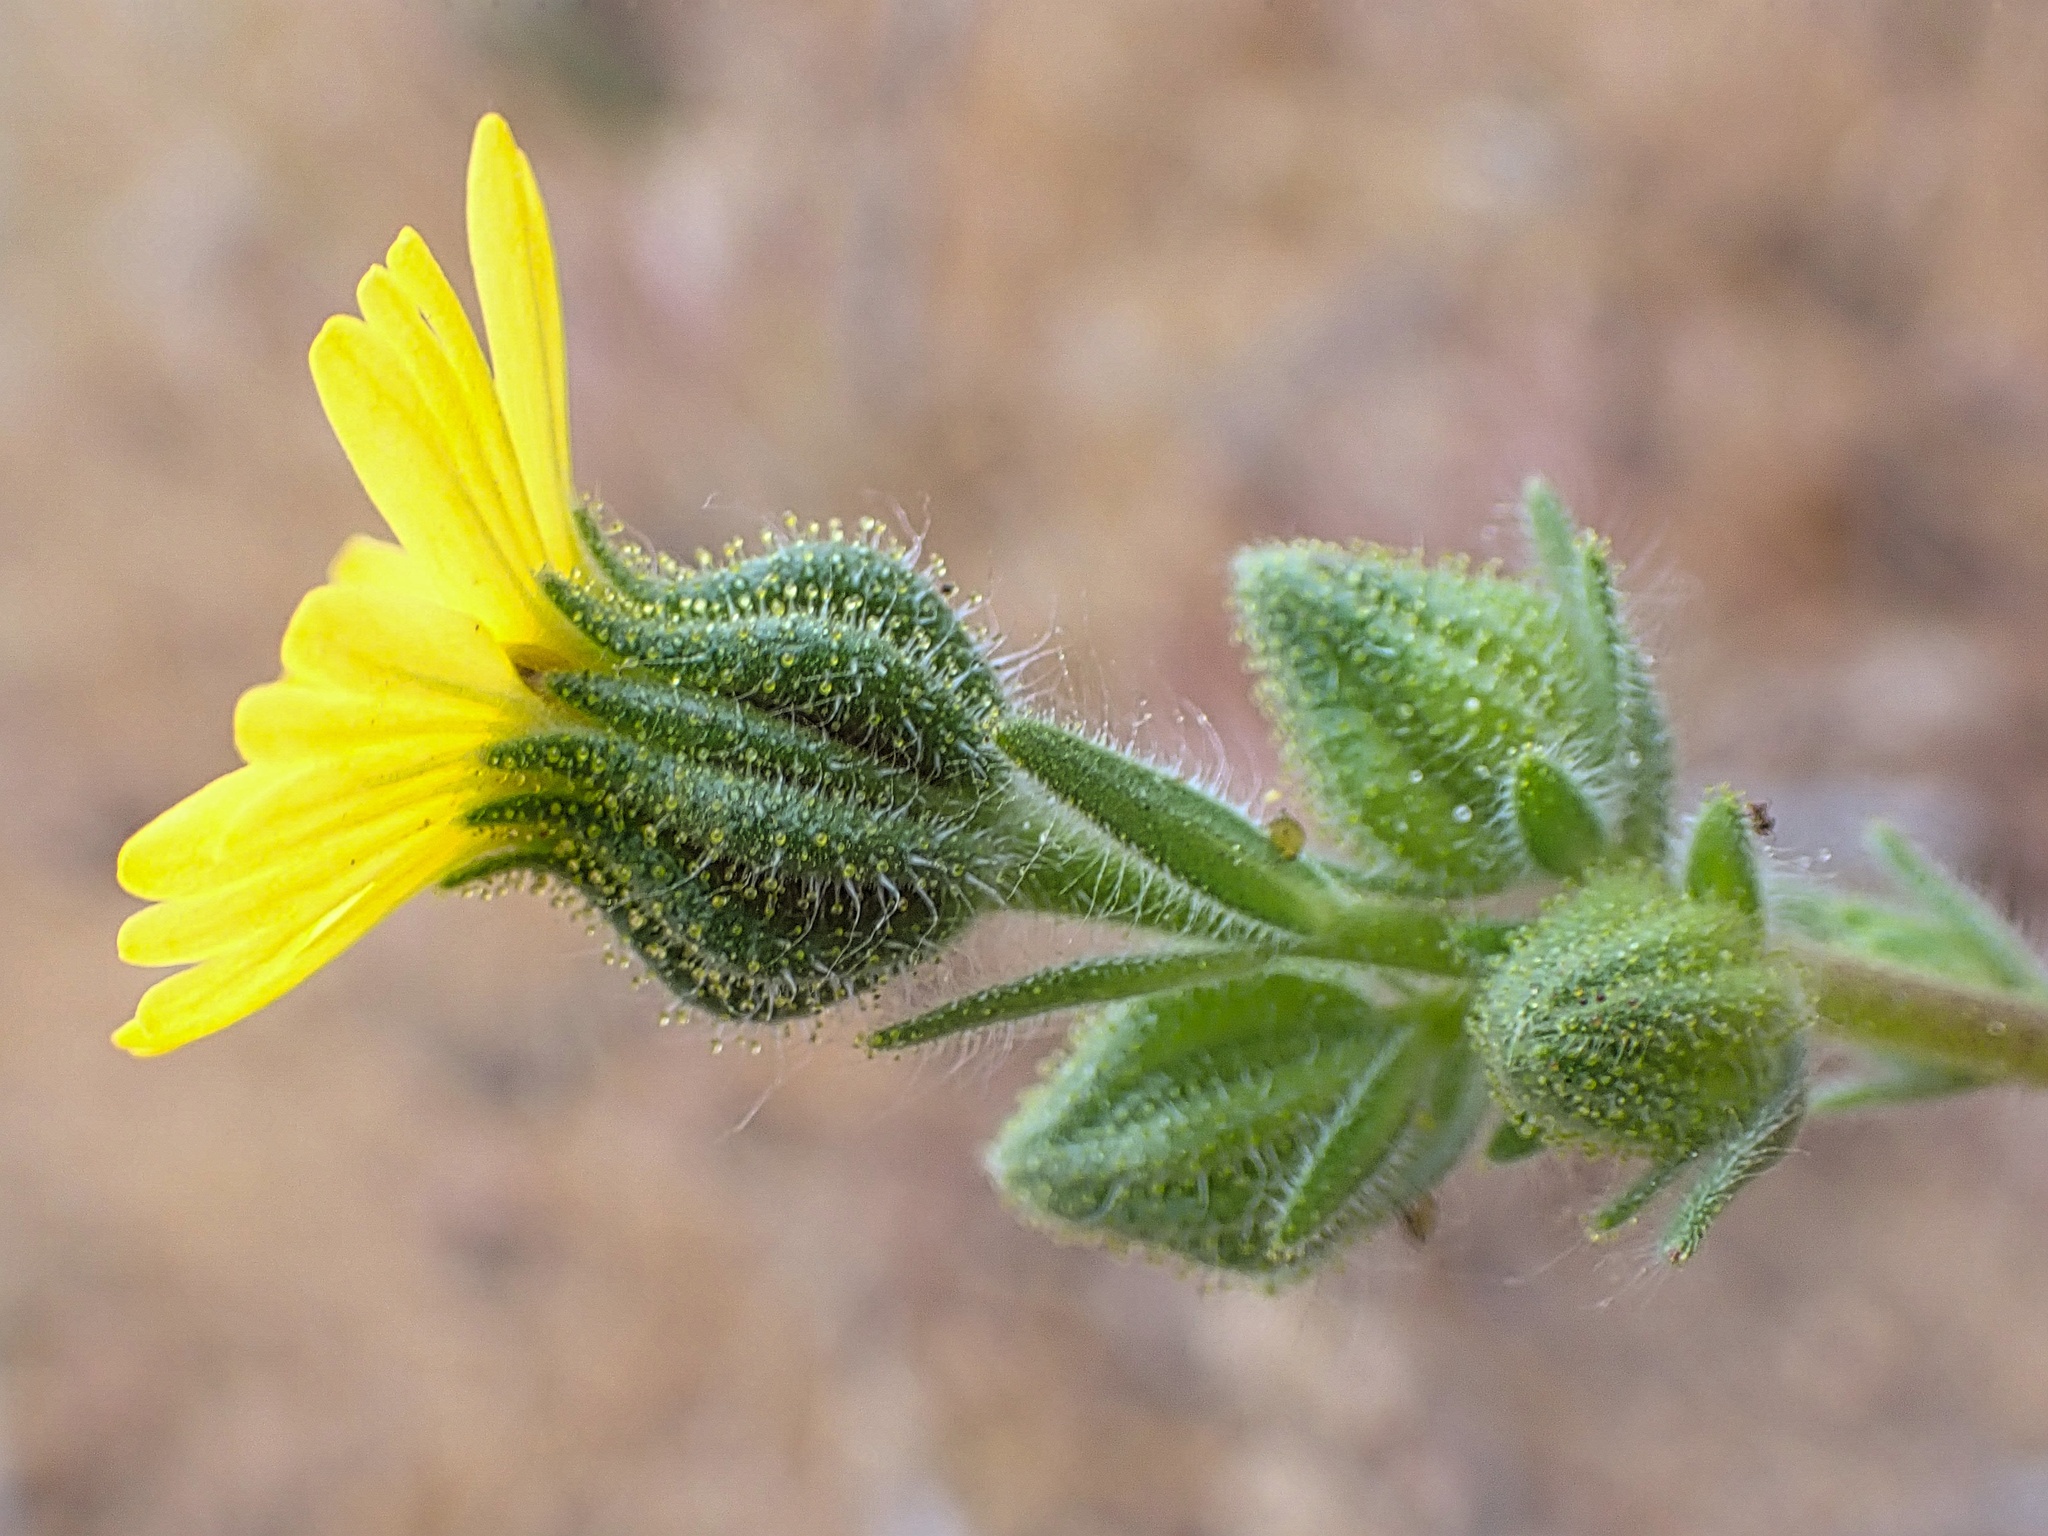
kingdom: Plantae
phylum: Tracheophyta
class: Magnoliopsida
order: Asterales
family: Asteraceae
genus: Madia
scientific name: Madia gracilis
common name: Grassy tarweed
